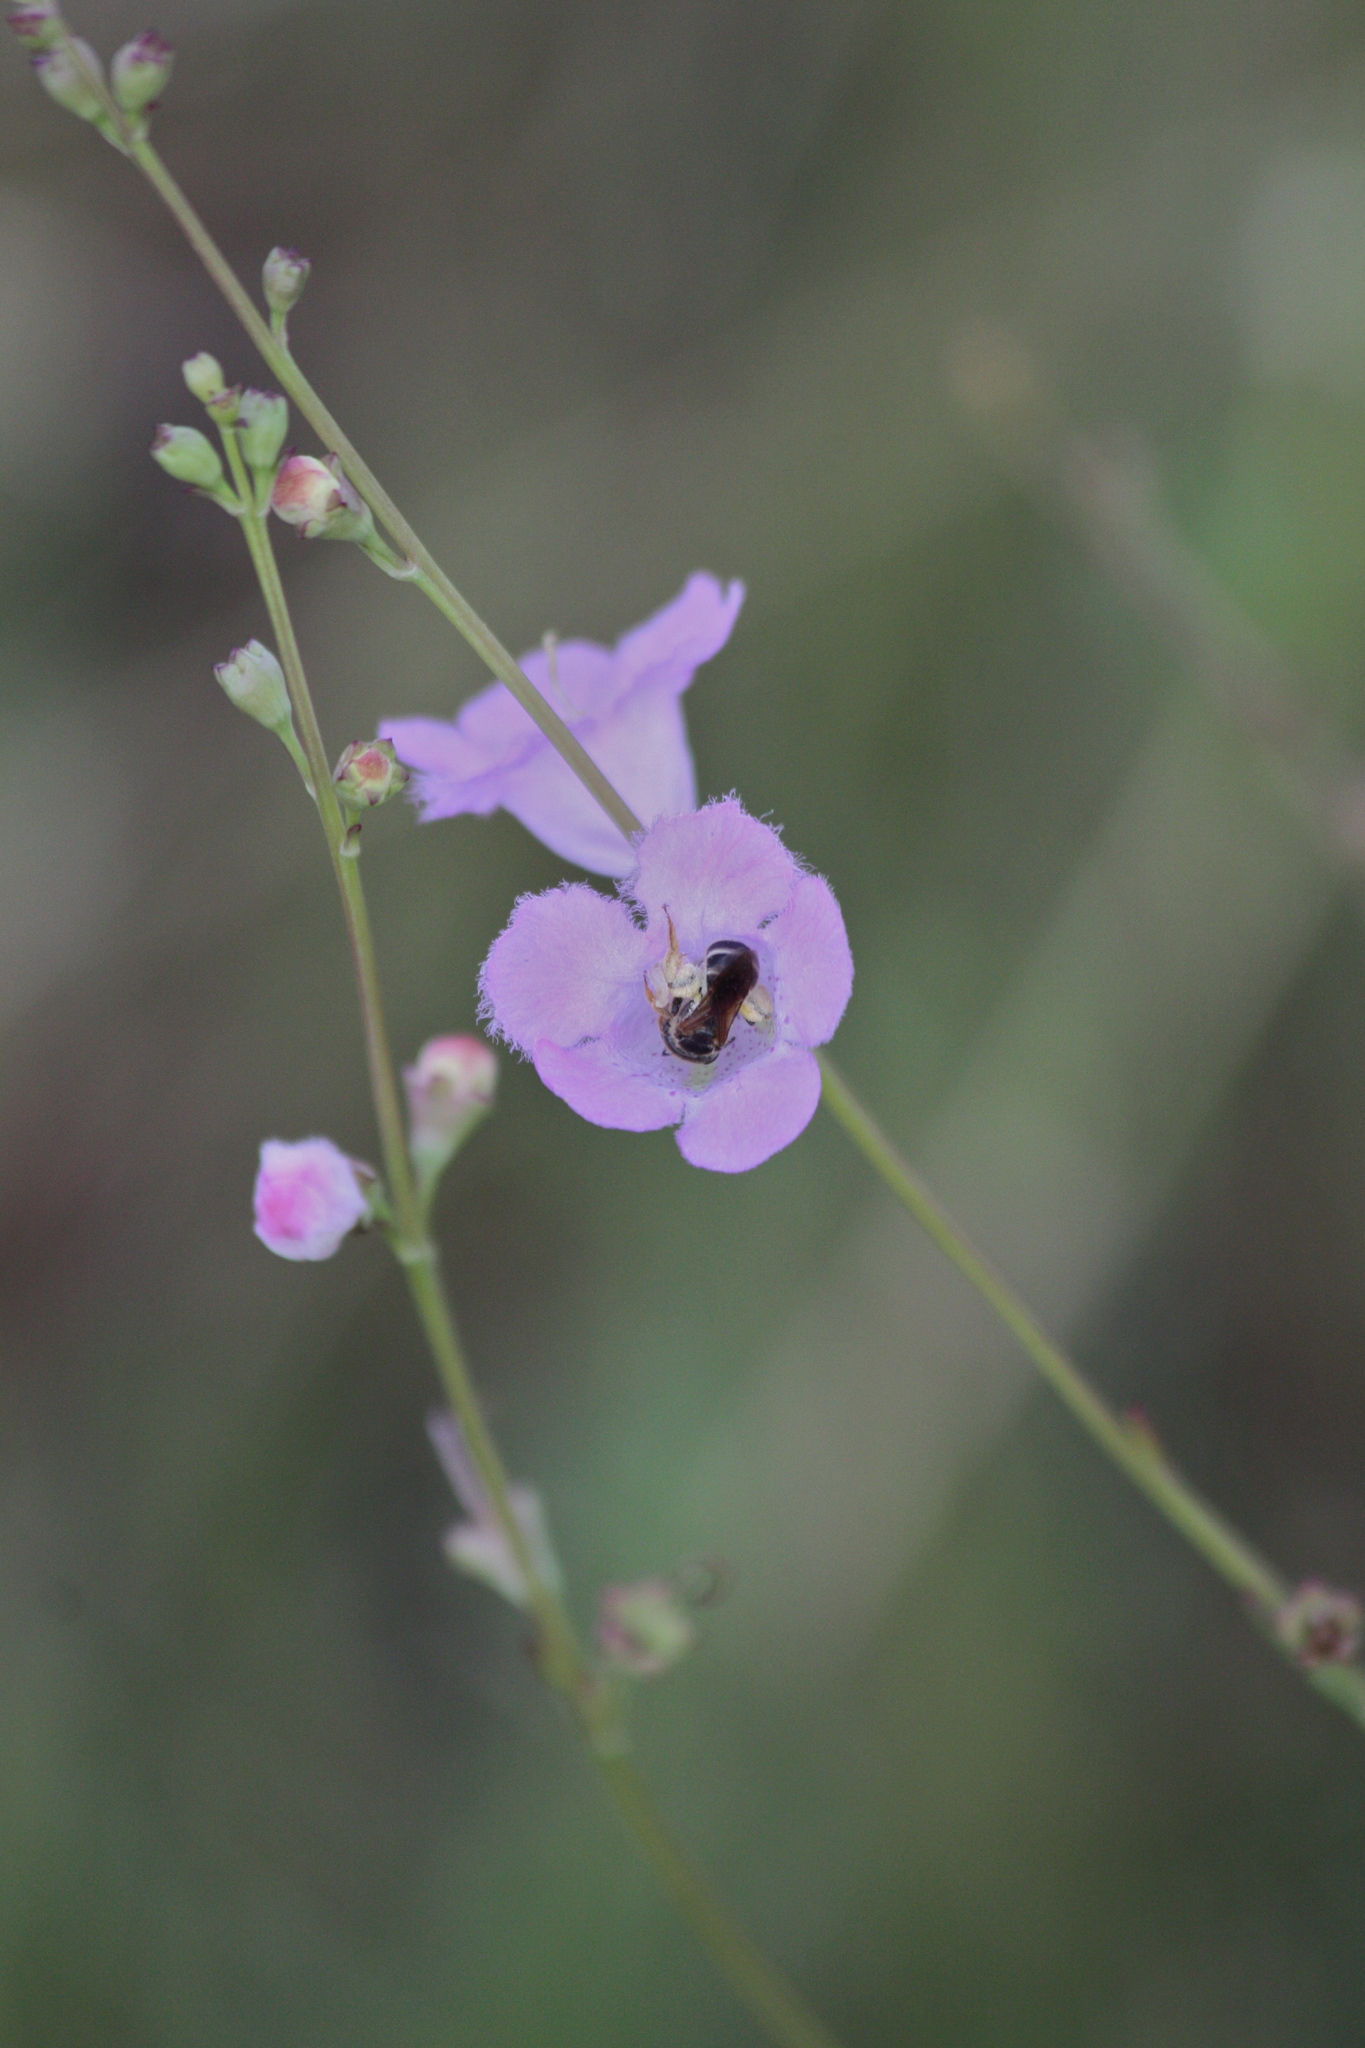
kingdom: Plantae
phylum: Tracheophyta
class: Magnoliopsida
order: Lamiales
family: Orobanchaceae
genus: Agalinis
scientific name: Agalinis maritima
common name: Saltmarsh agalinis
